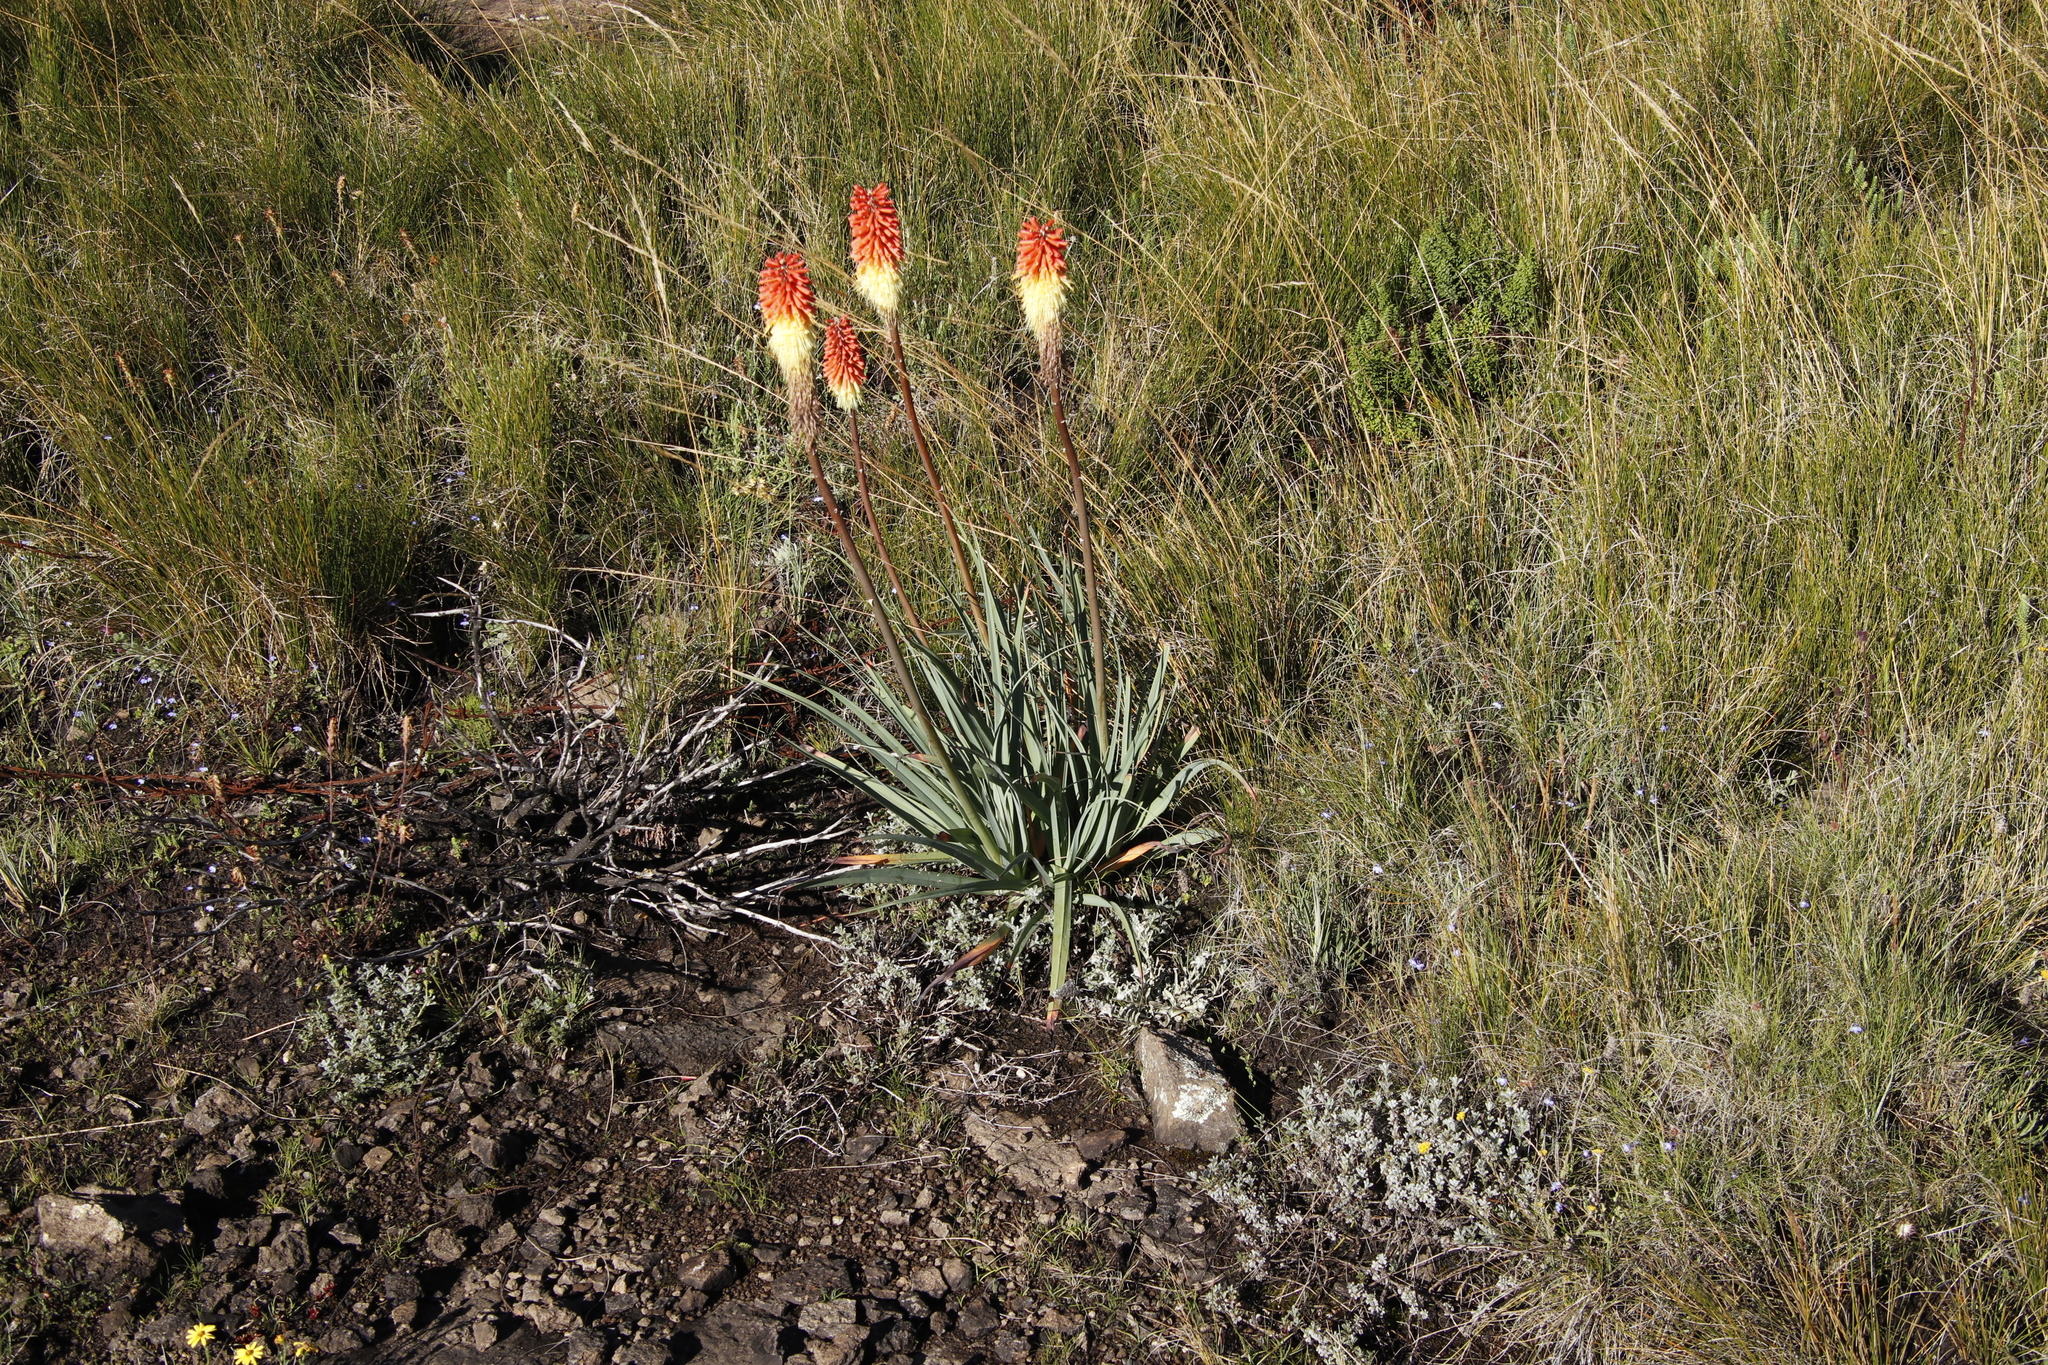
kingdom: Plantae
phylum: Tracheophyta
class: Liliopsida
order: Asparagales
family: Asphodelaceae
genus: Kniphofia
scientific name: Kniphofia caulescens
